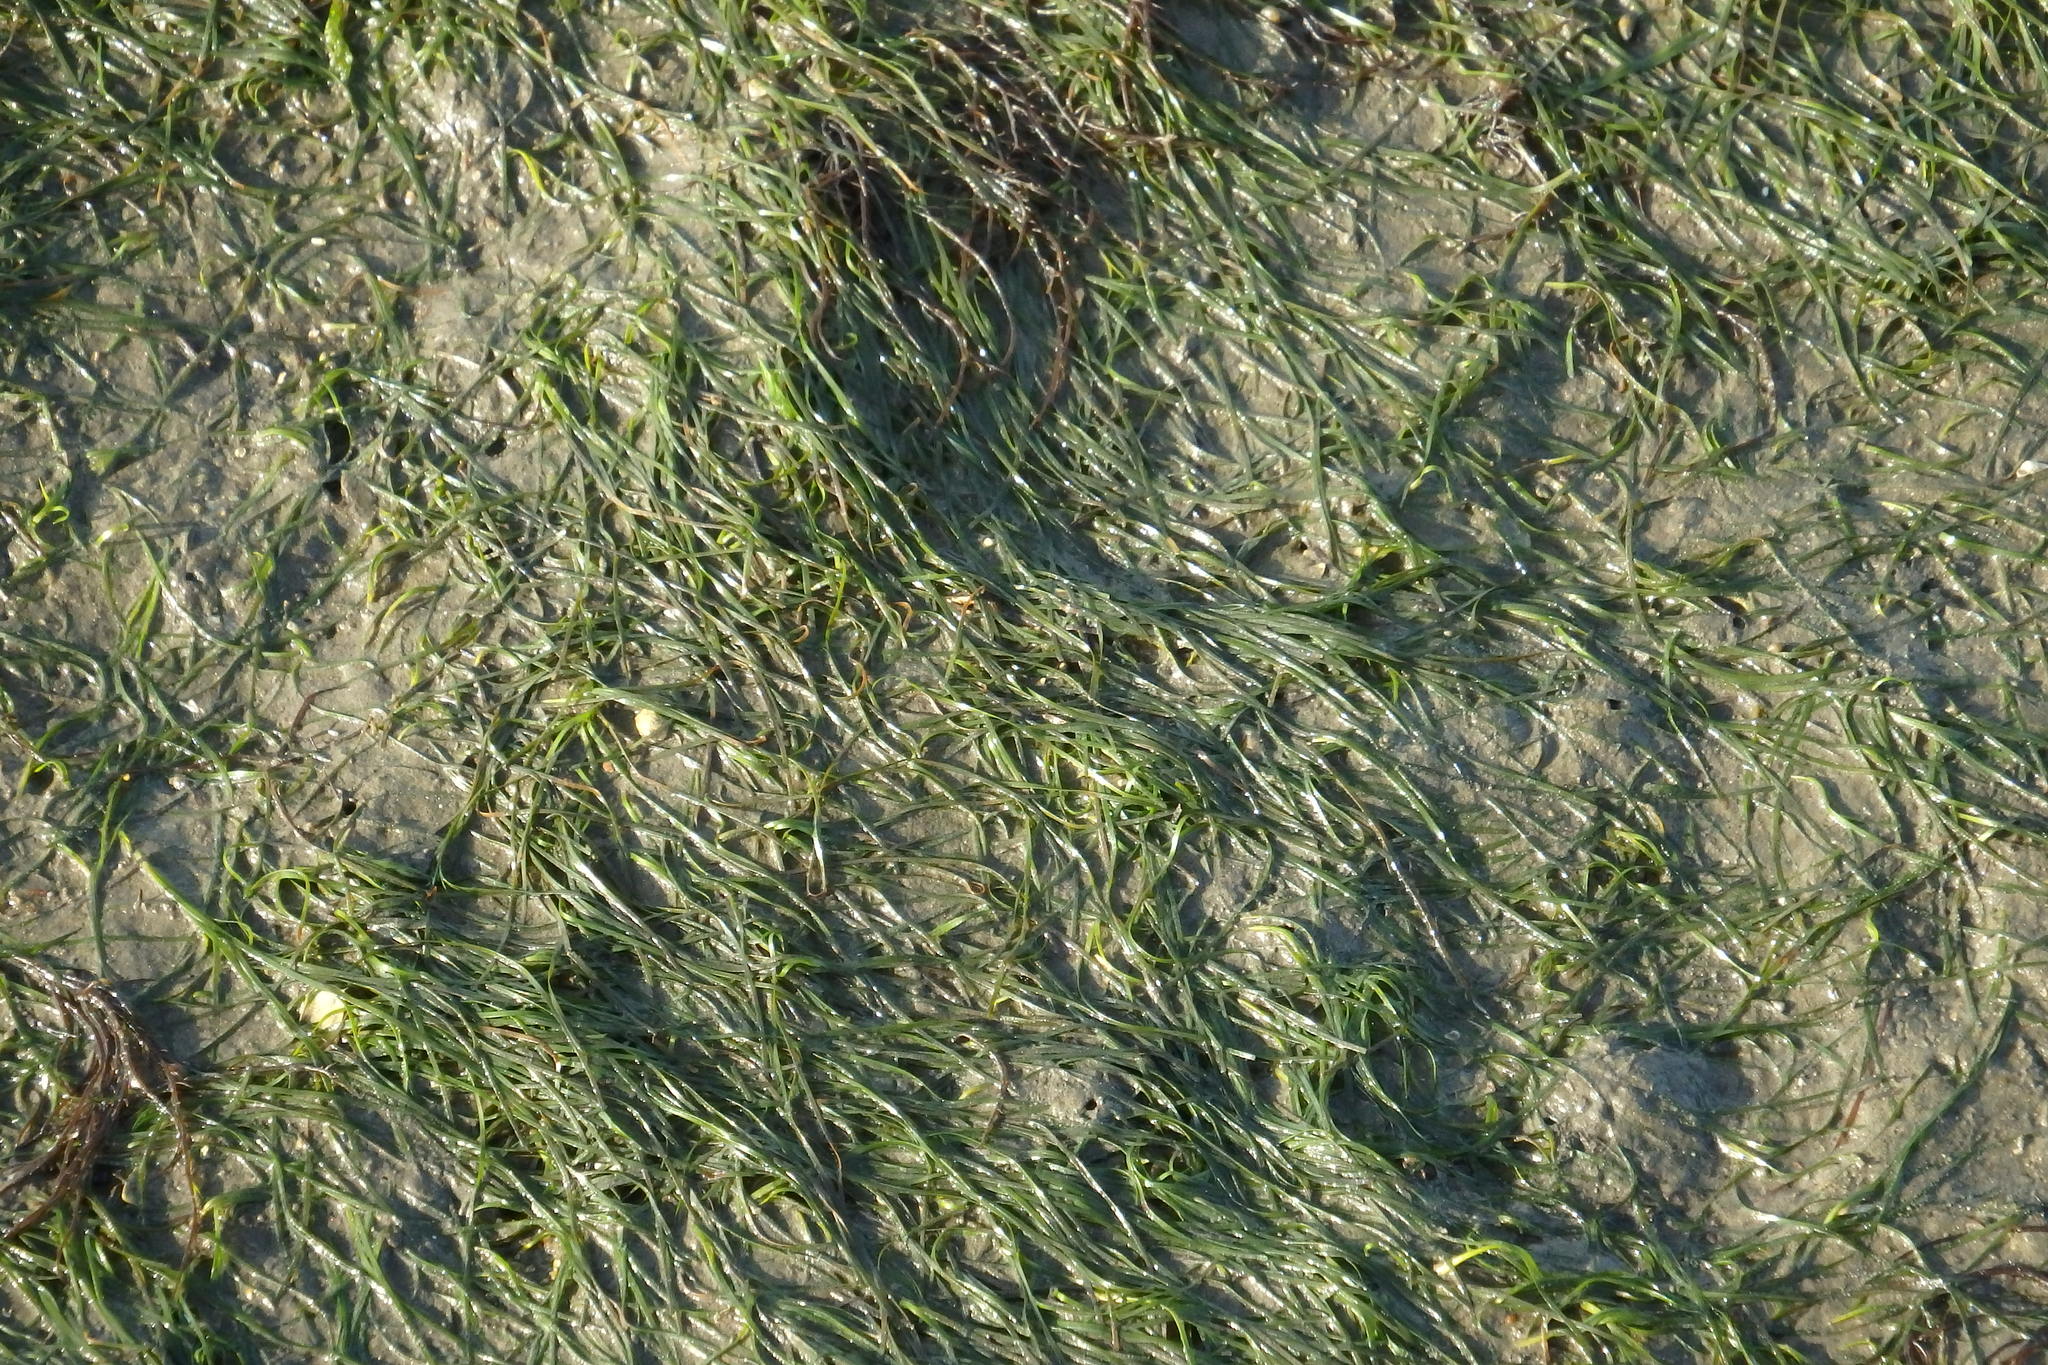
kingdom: Plantae
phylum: Tracheophyta
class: Liliopsida
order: Alismatales
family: Zosteraceae
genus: Zostera
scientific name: Zostera noltii
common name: Dwarf eelgrass
